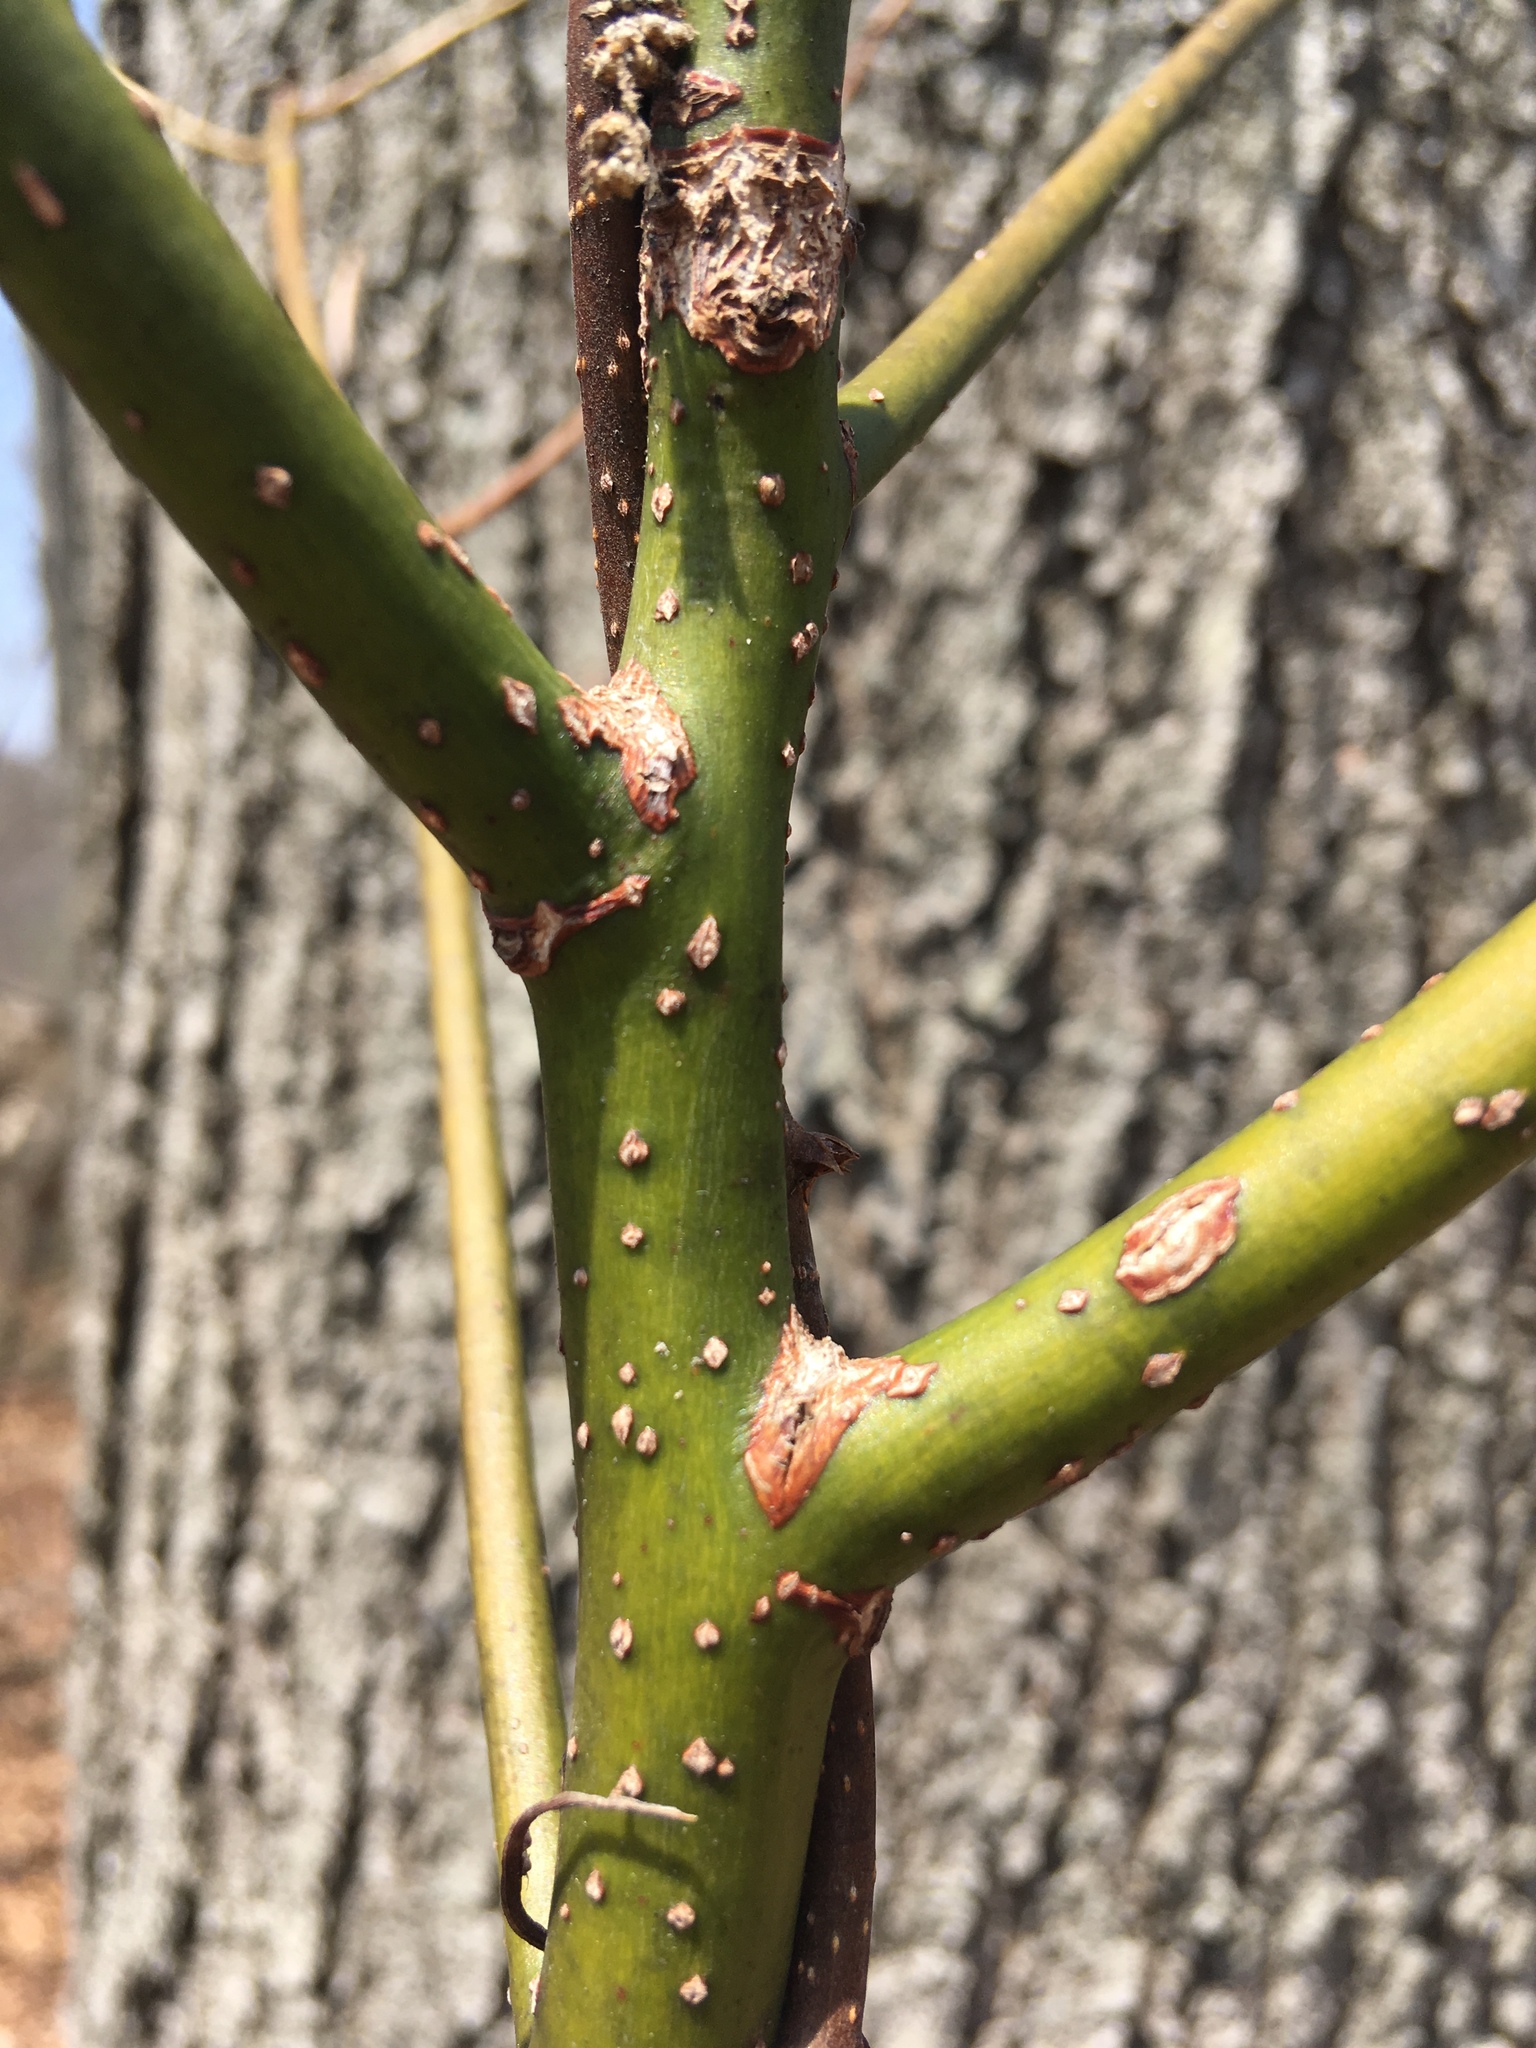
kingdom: Plantae
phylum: Tracheophyta
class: Magnoliopsida
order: Laurales
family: Lauraceae
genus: Sassafras
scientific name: Sassafras albidum
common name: Sassafras
